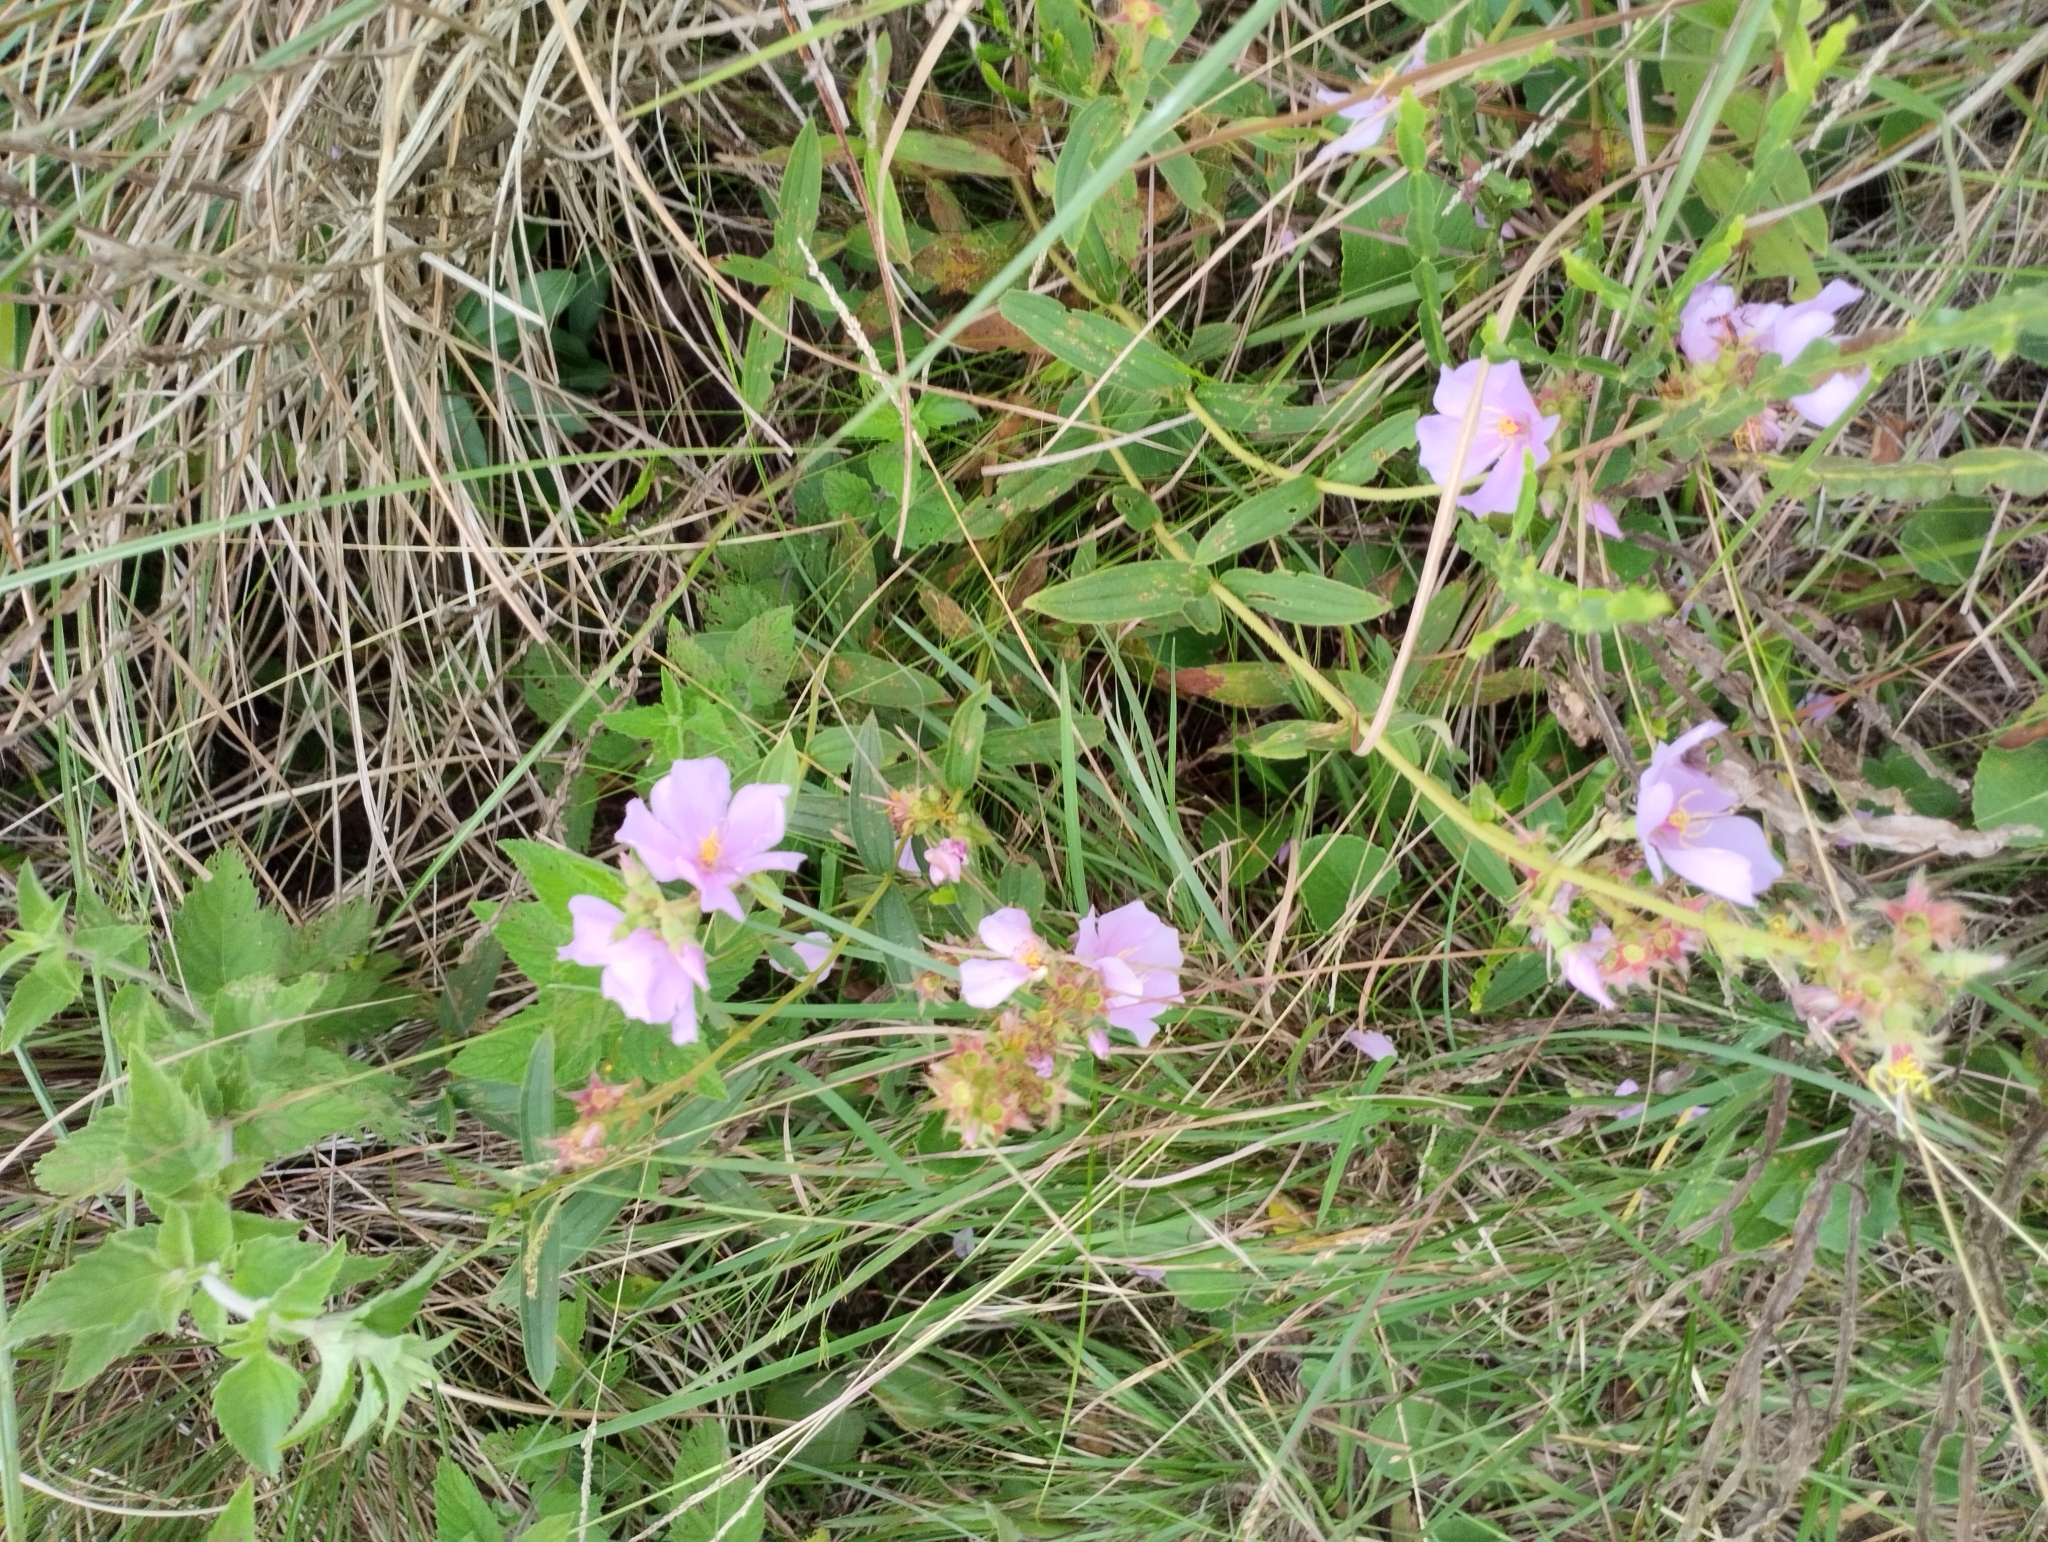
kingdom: Plantae
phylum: Tracheophyta
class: Magnoliopsida
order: Myrtales
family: Melastomataceae
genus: Chaetogastra
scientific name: Chaetogastra gracilis
